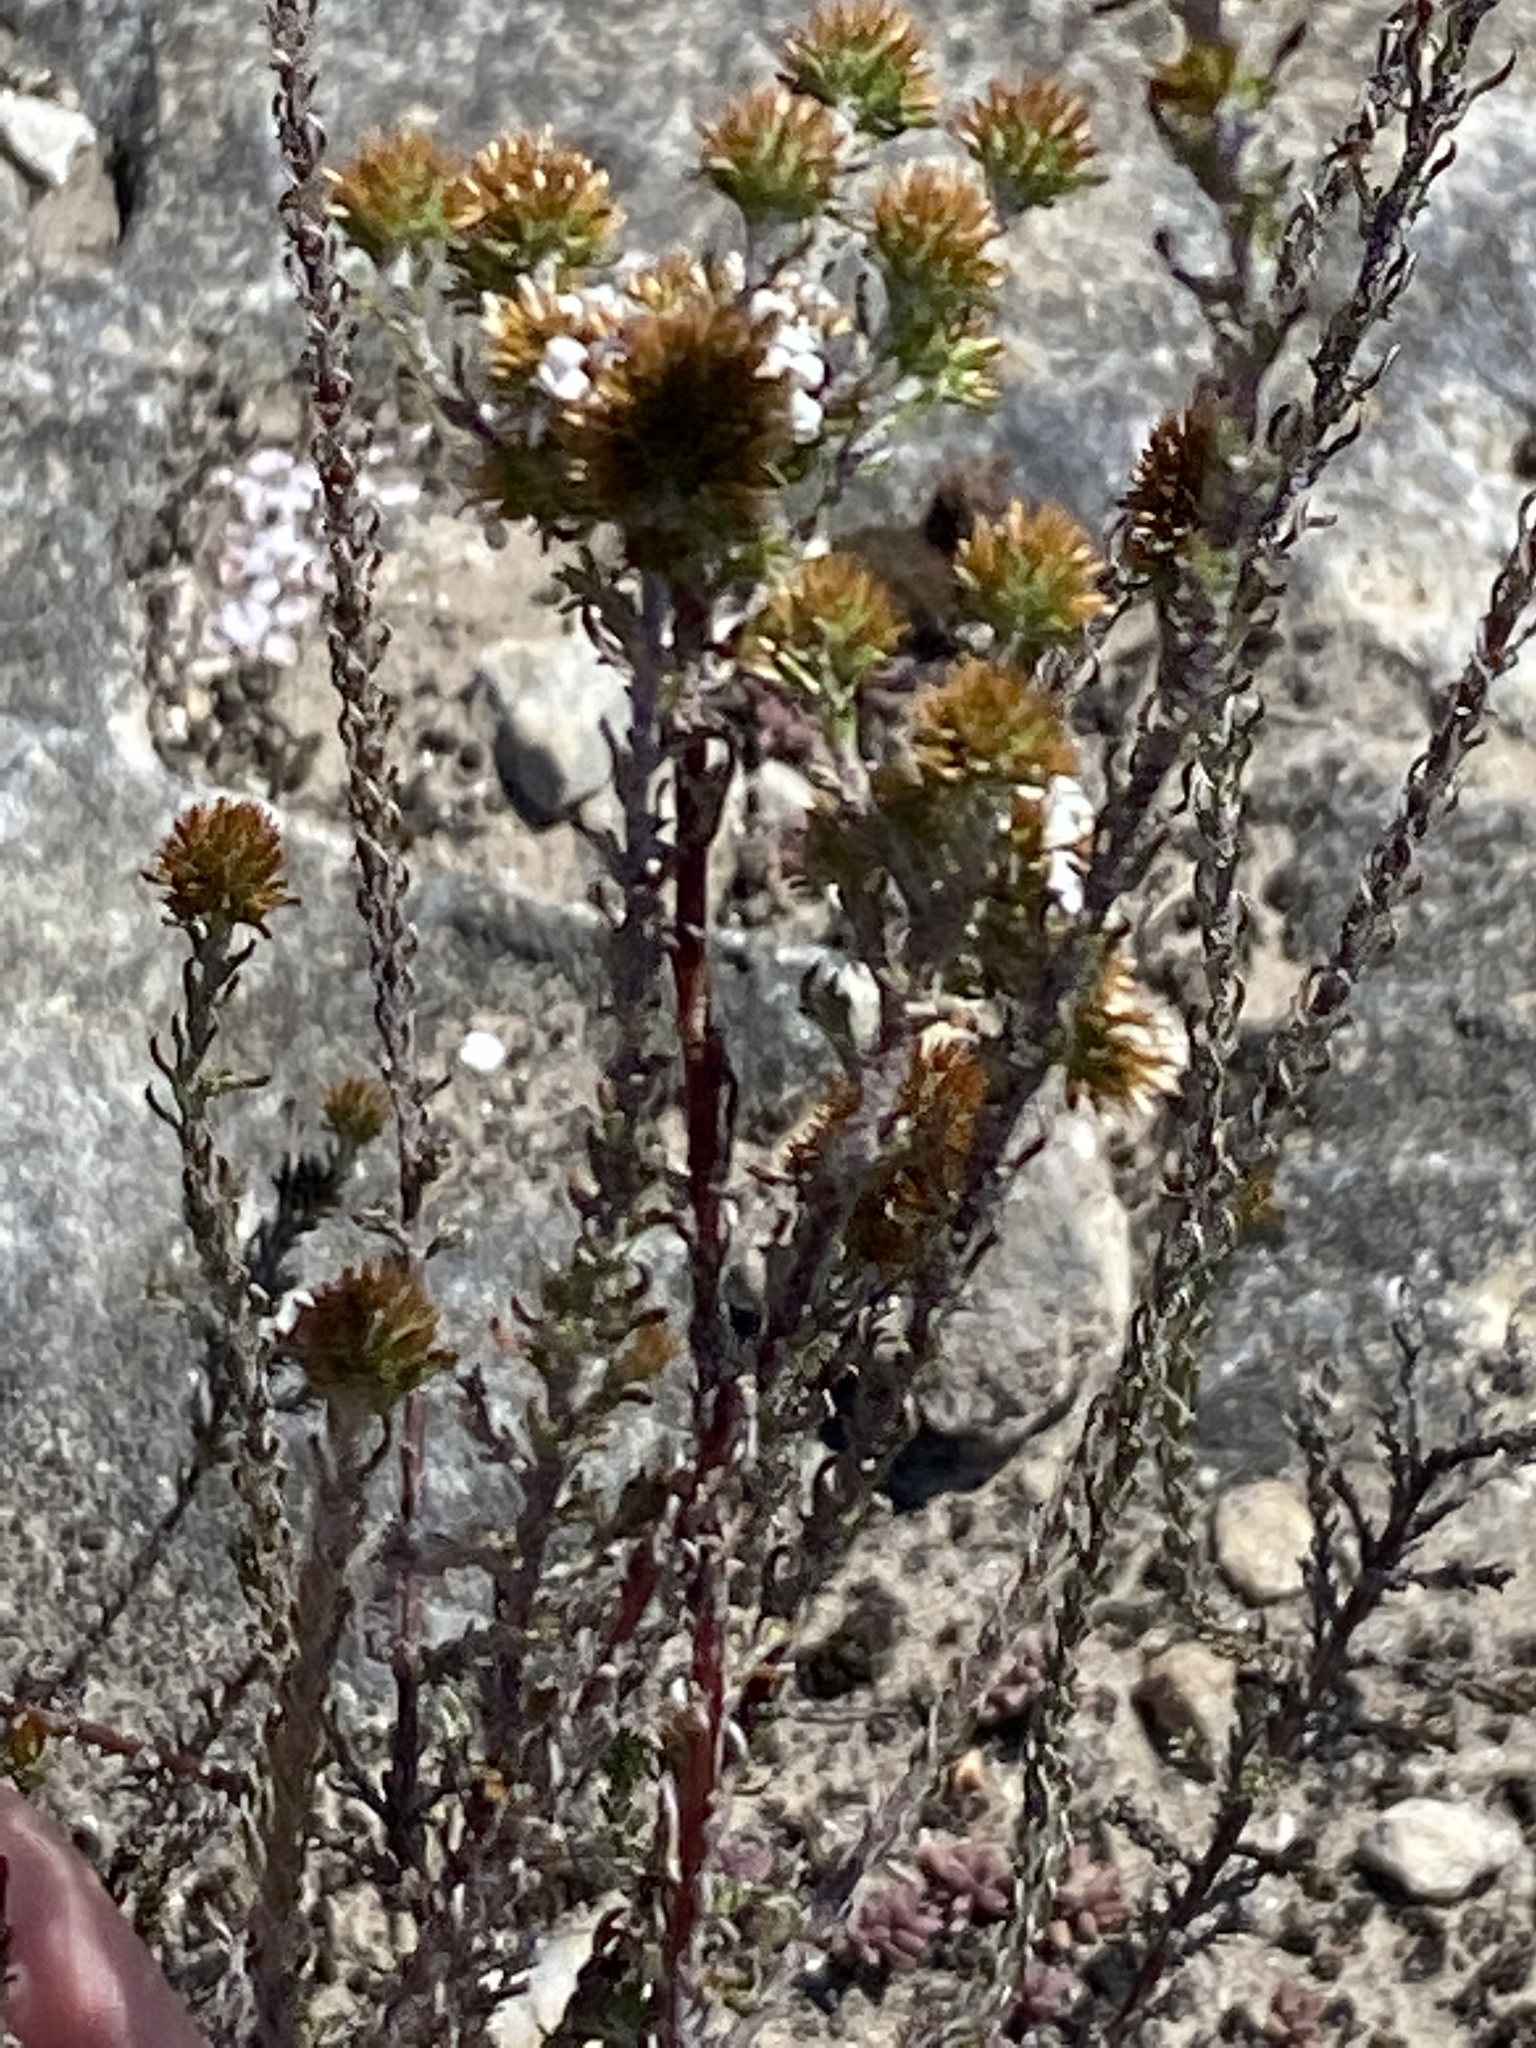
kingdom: Plantae
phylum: Tracheophyta
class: Magnoliopsida
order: Asterales
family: Asteraceae
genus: Disparago
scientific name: Disparago anomala
